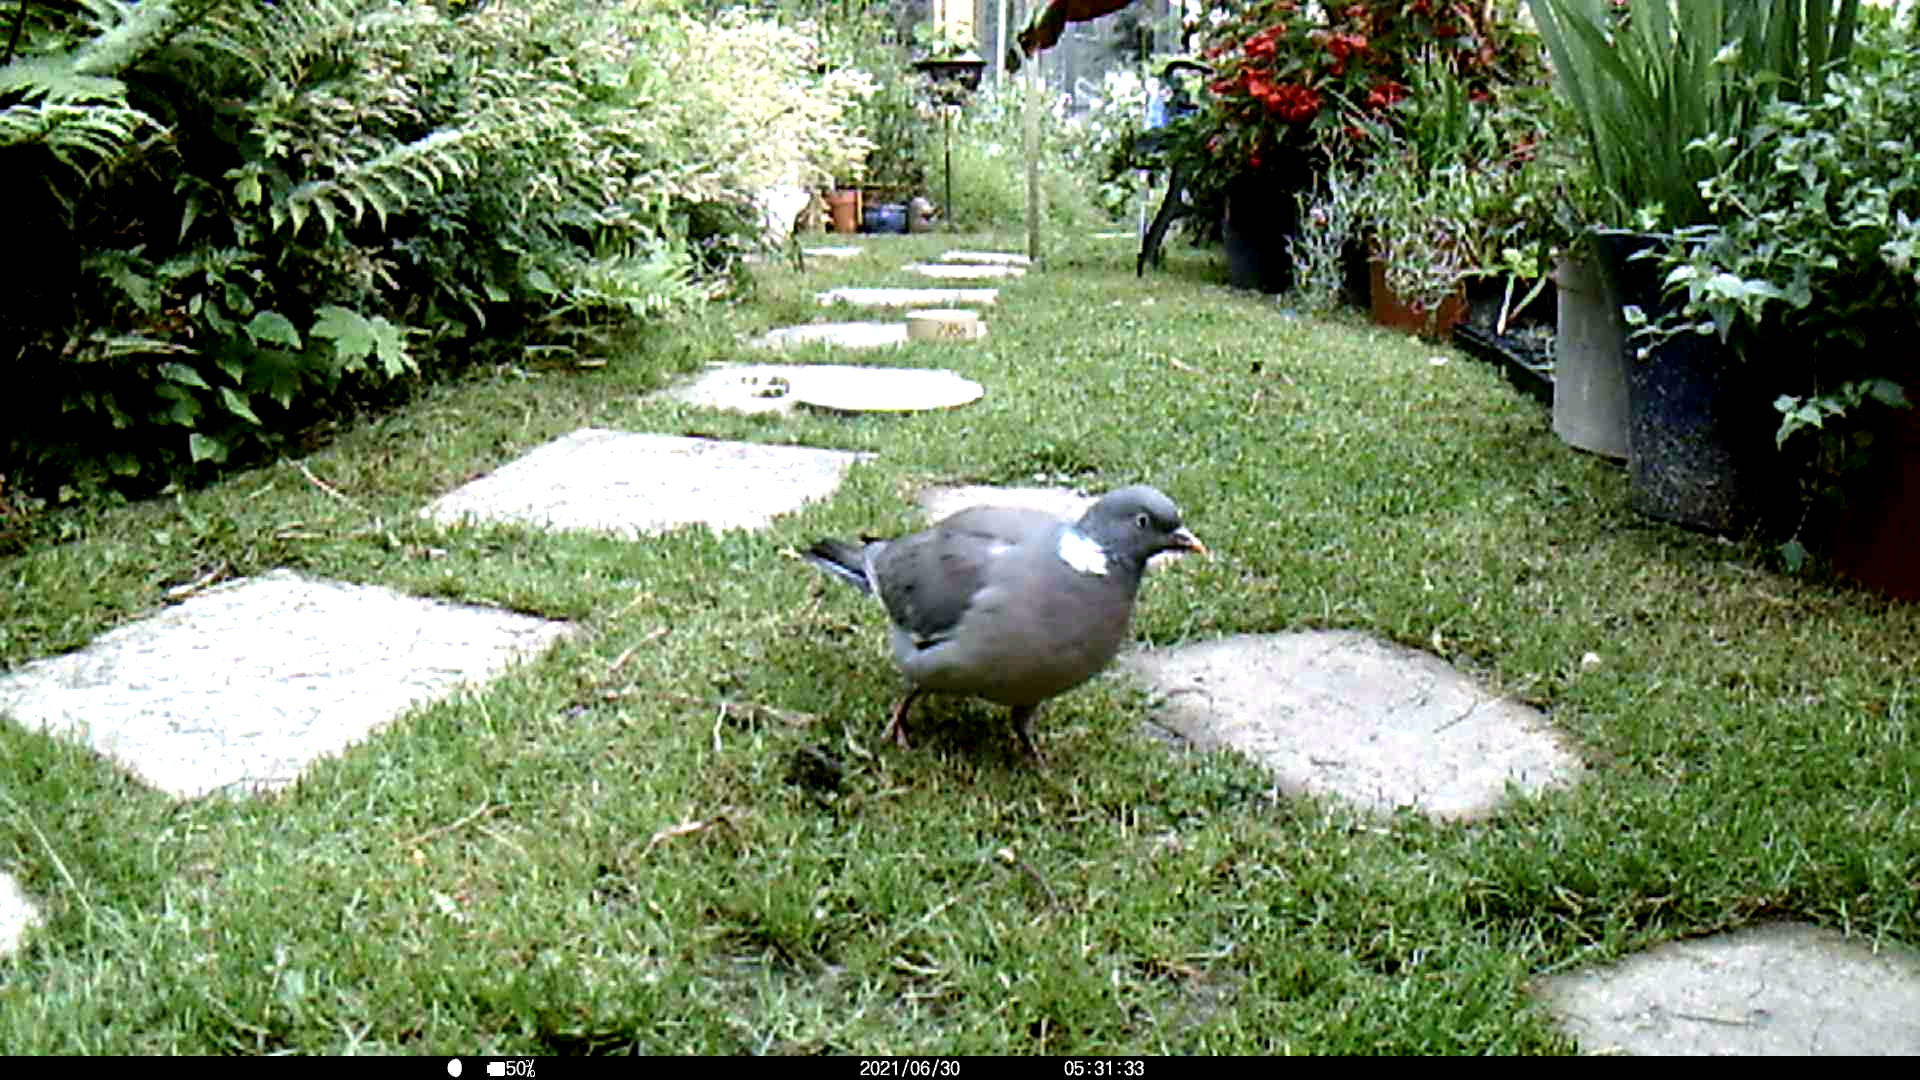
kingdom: Animalia
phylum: Chordata
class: Aves
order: Columbiformes
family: Columbidae
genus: Columba
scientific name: Columba palumbus
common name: Common wood pigeon
